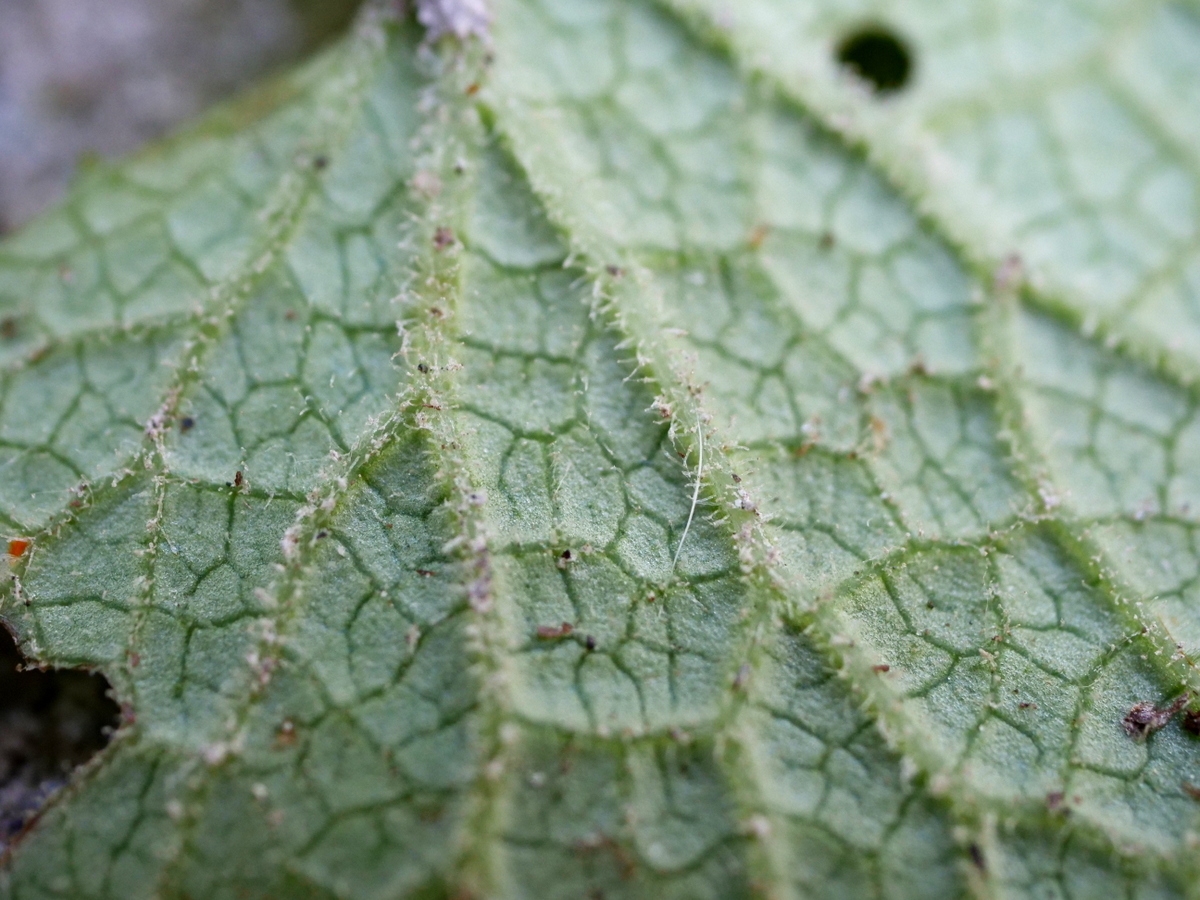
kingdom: Plantae
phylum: Tracheophyta
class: Magnoliopsida
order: Asterales
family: Asteraceae
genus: Adenostyles
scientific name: Adenostyles alpina
